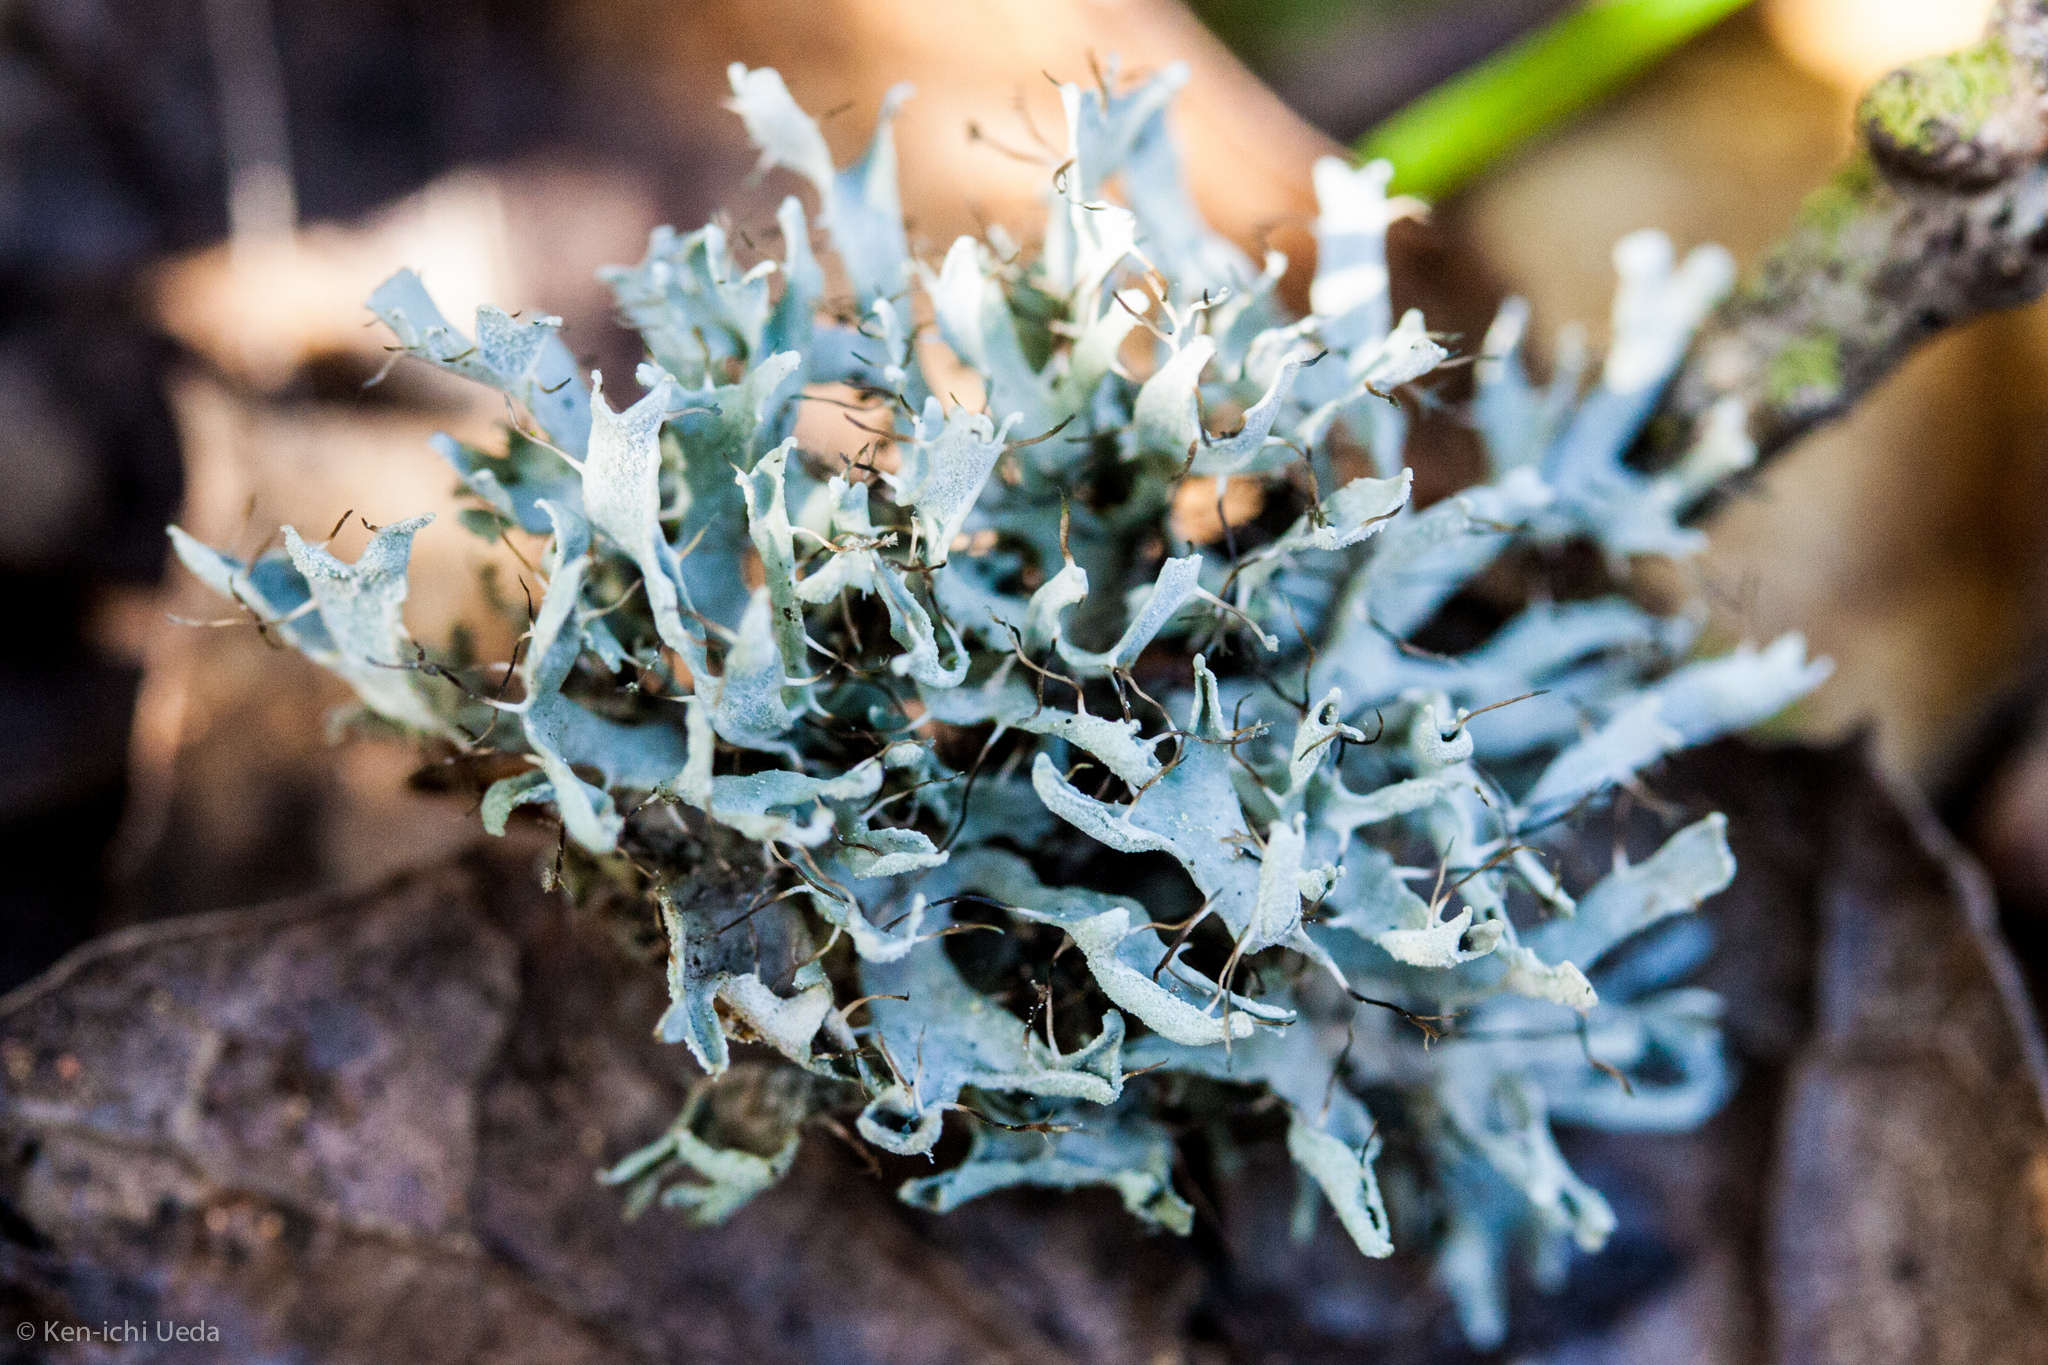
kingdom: Fungi
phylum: Ascomycota
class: Lecanoromycetes
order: Caliciales
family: Physciaceae
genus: Leucodermia
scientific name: Leucodermia leucomelos
